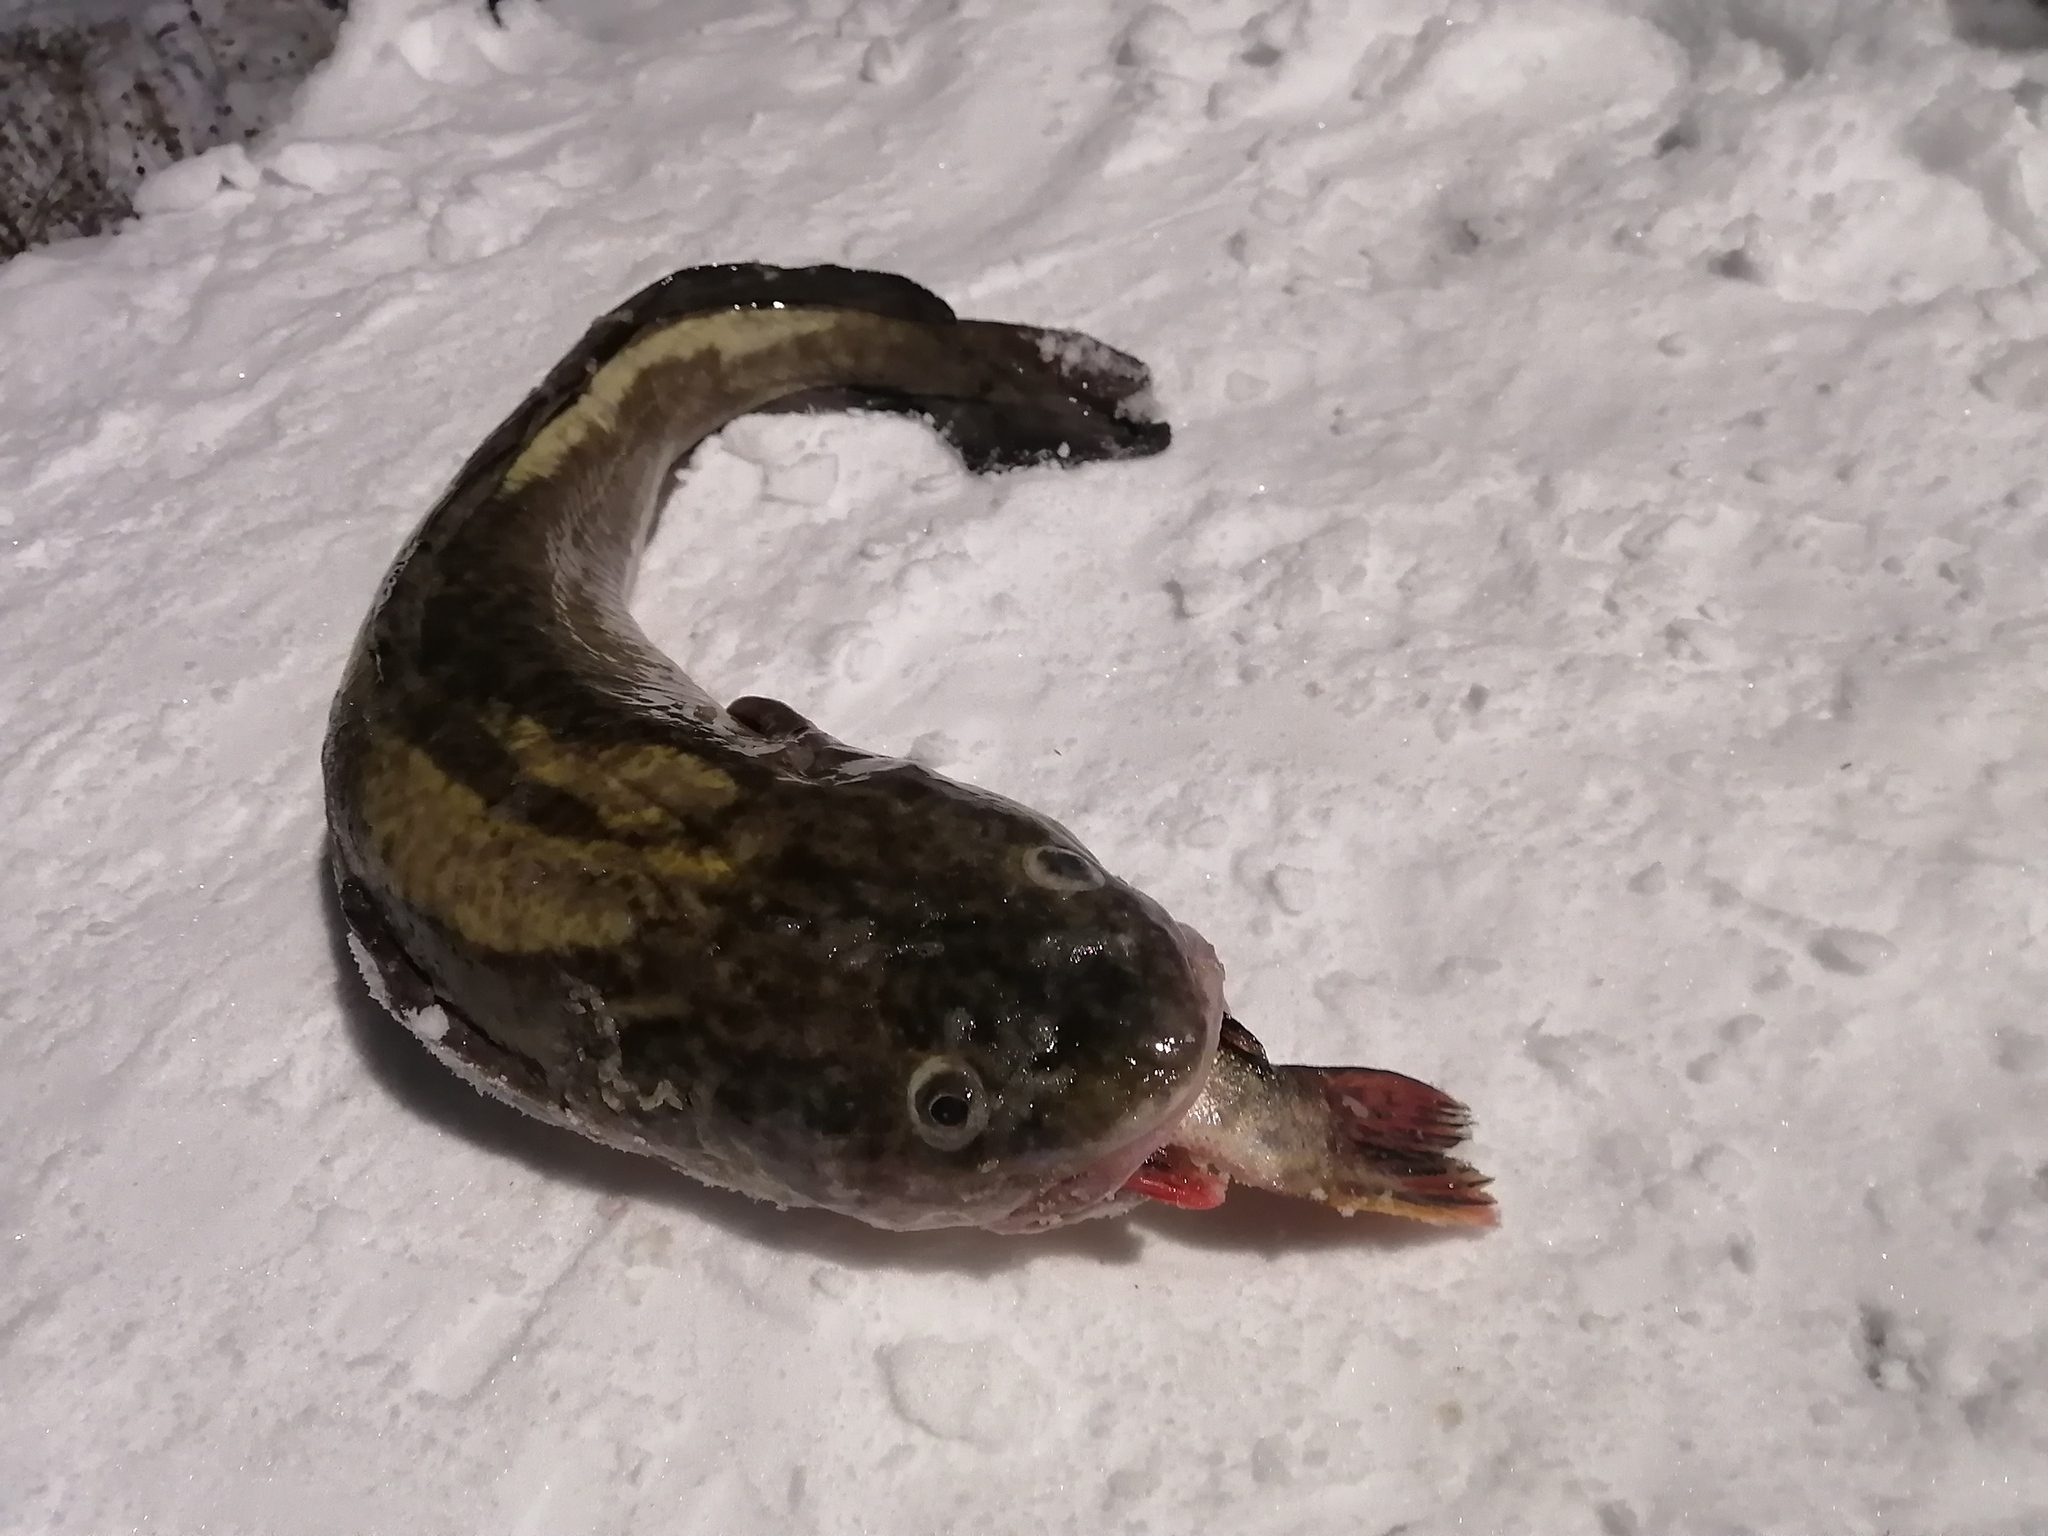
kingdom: Animalia
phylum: Chordata
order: Gadiformes
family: Lotidae
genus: Lota
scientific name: Lota lota
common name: Burbot
